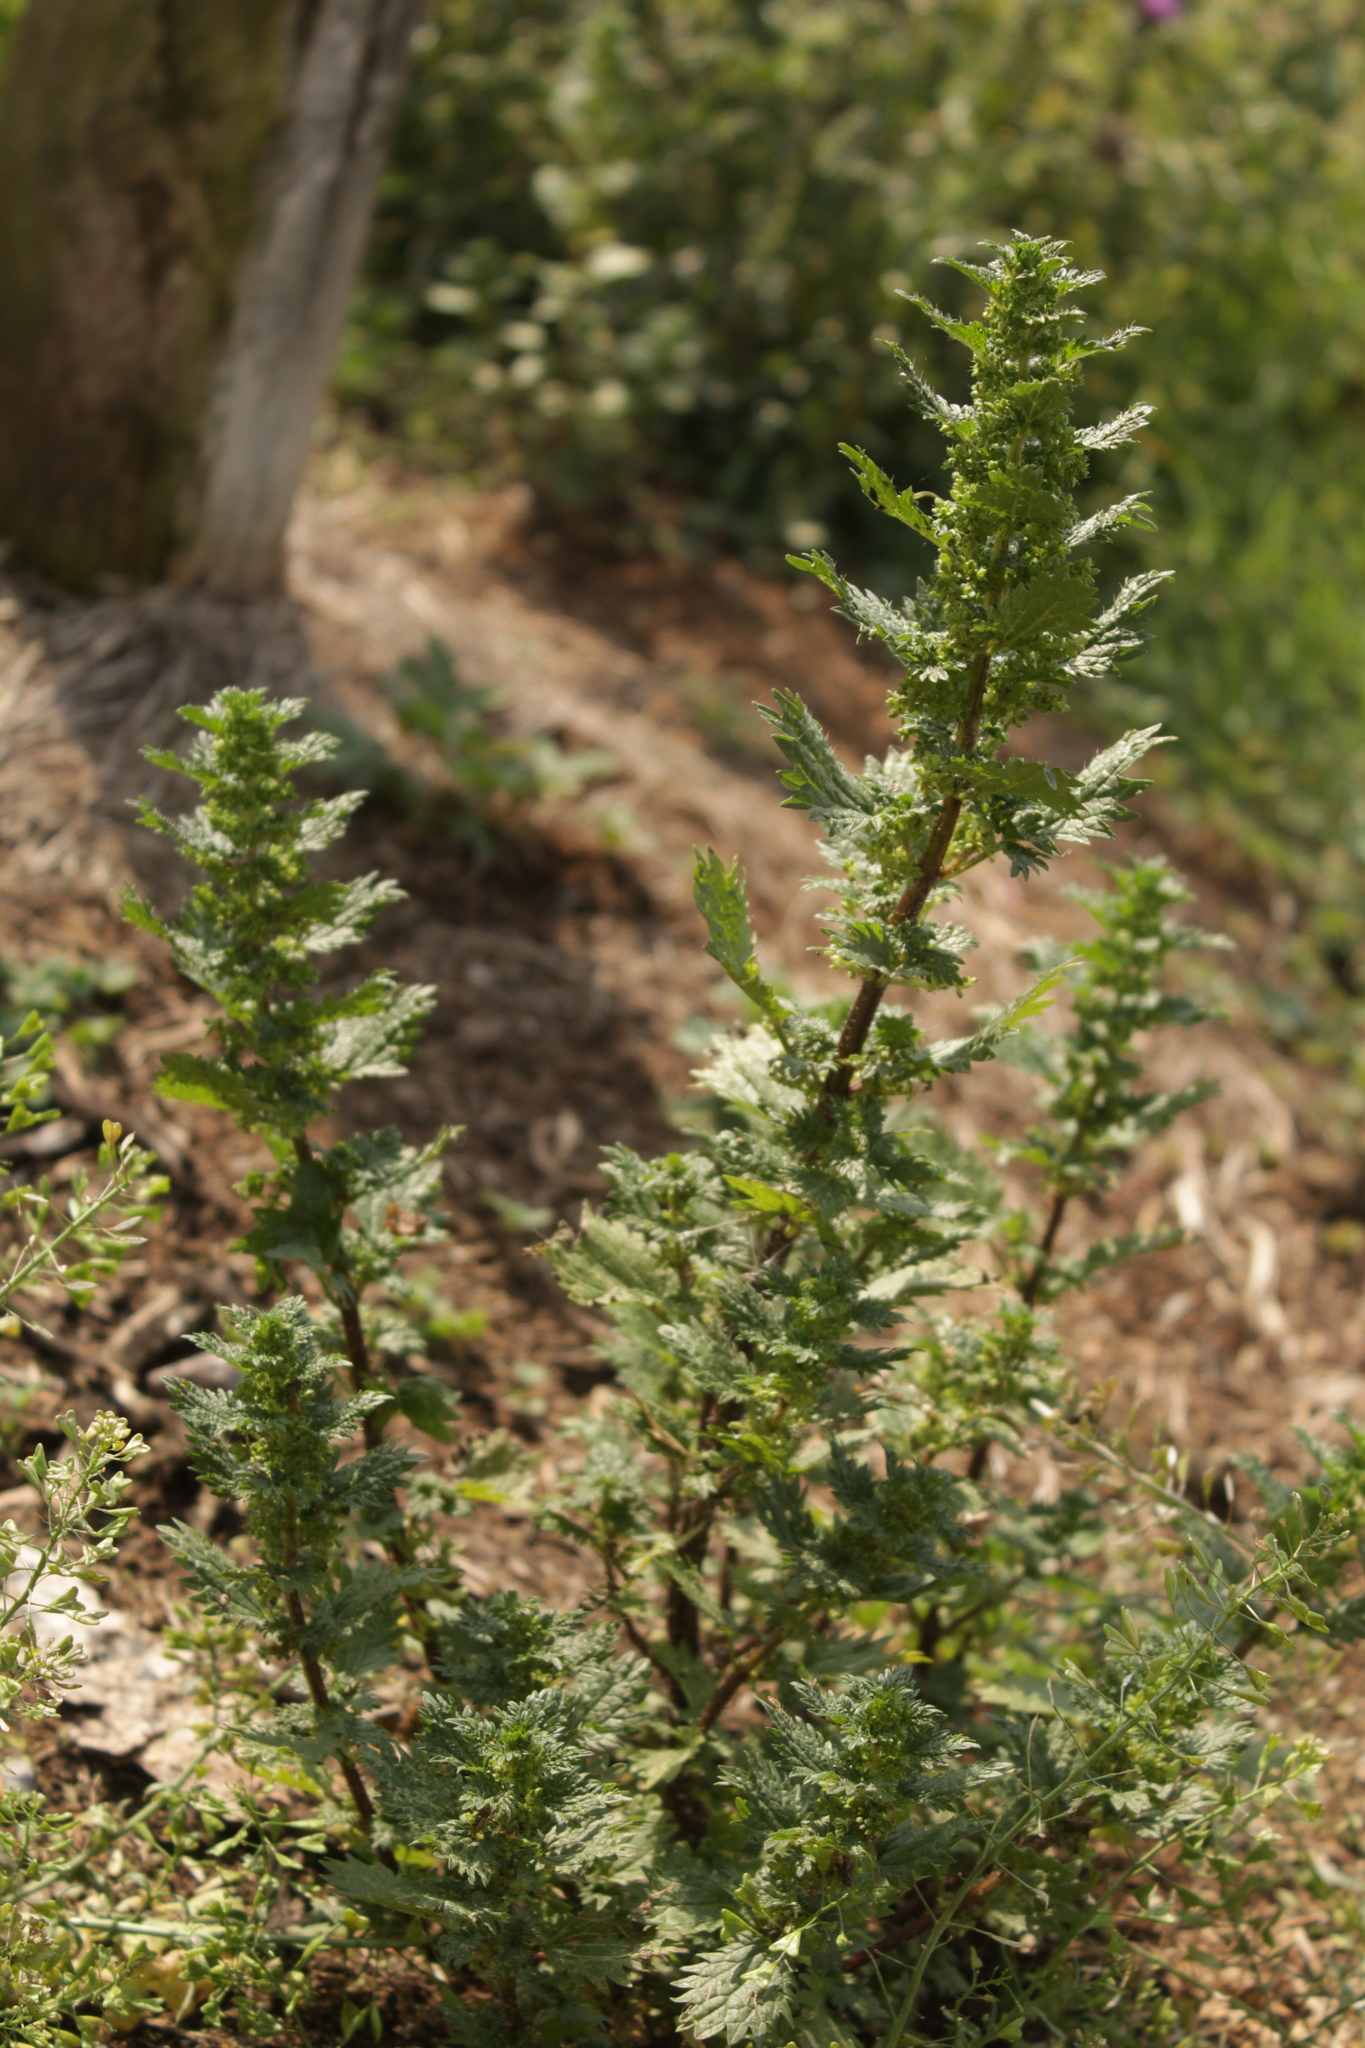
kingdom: Plantae
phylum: Tracheophyta
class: Magnoliopsida
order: Rosales
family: Urticaceae
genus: Urtica
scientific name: Urtica urens
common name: Dwarf nettle
